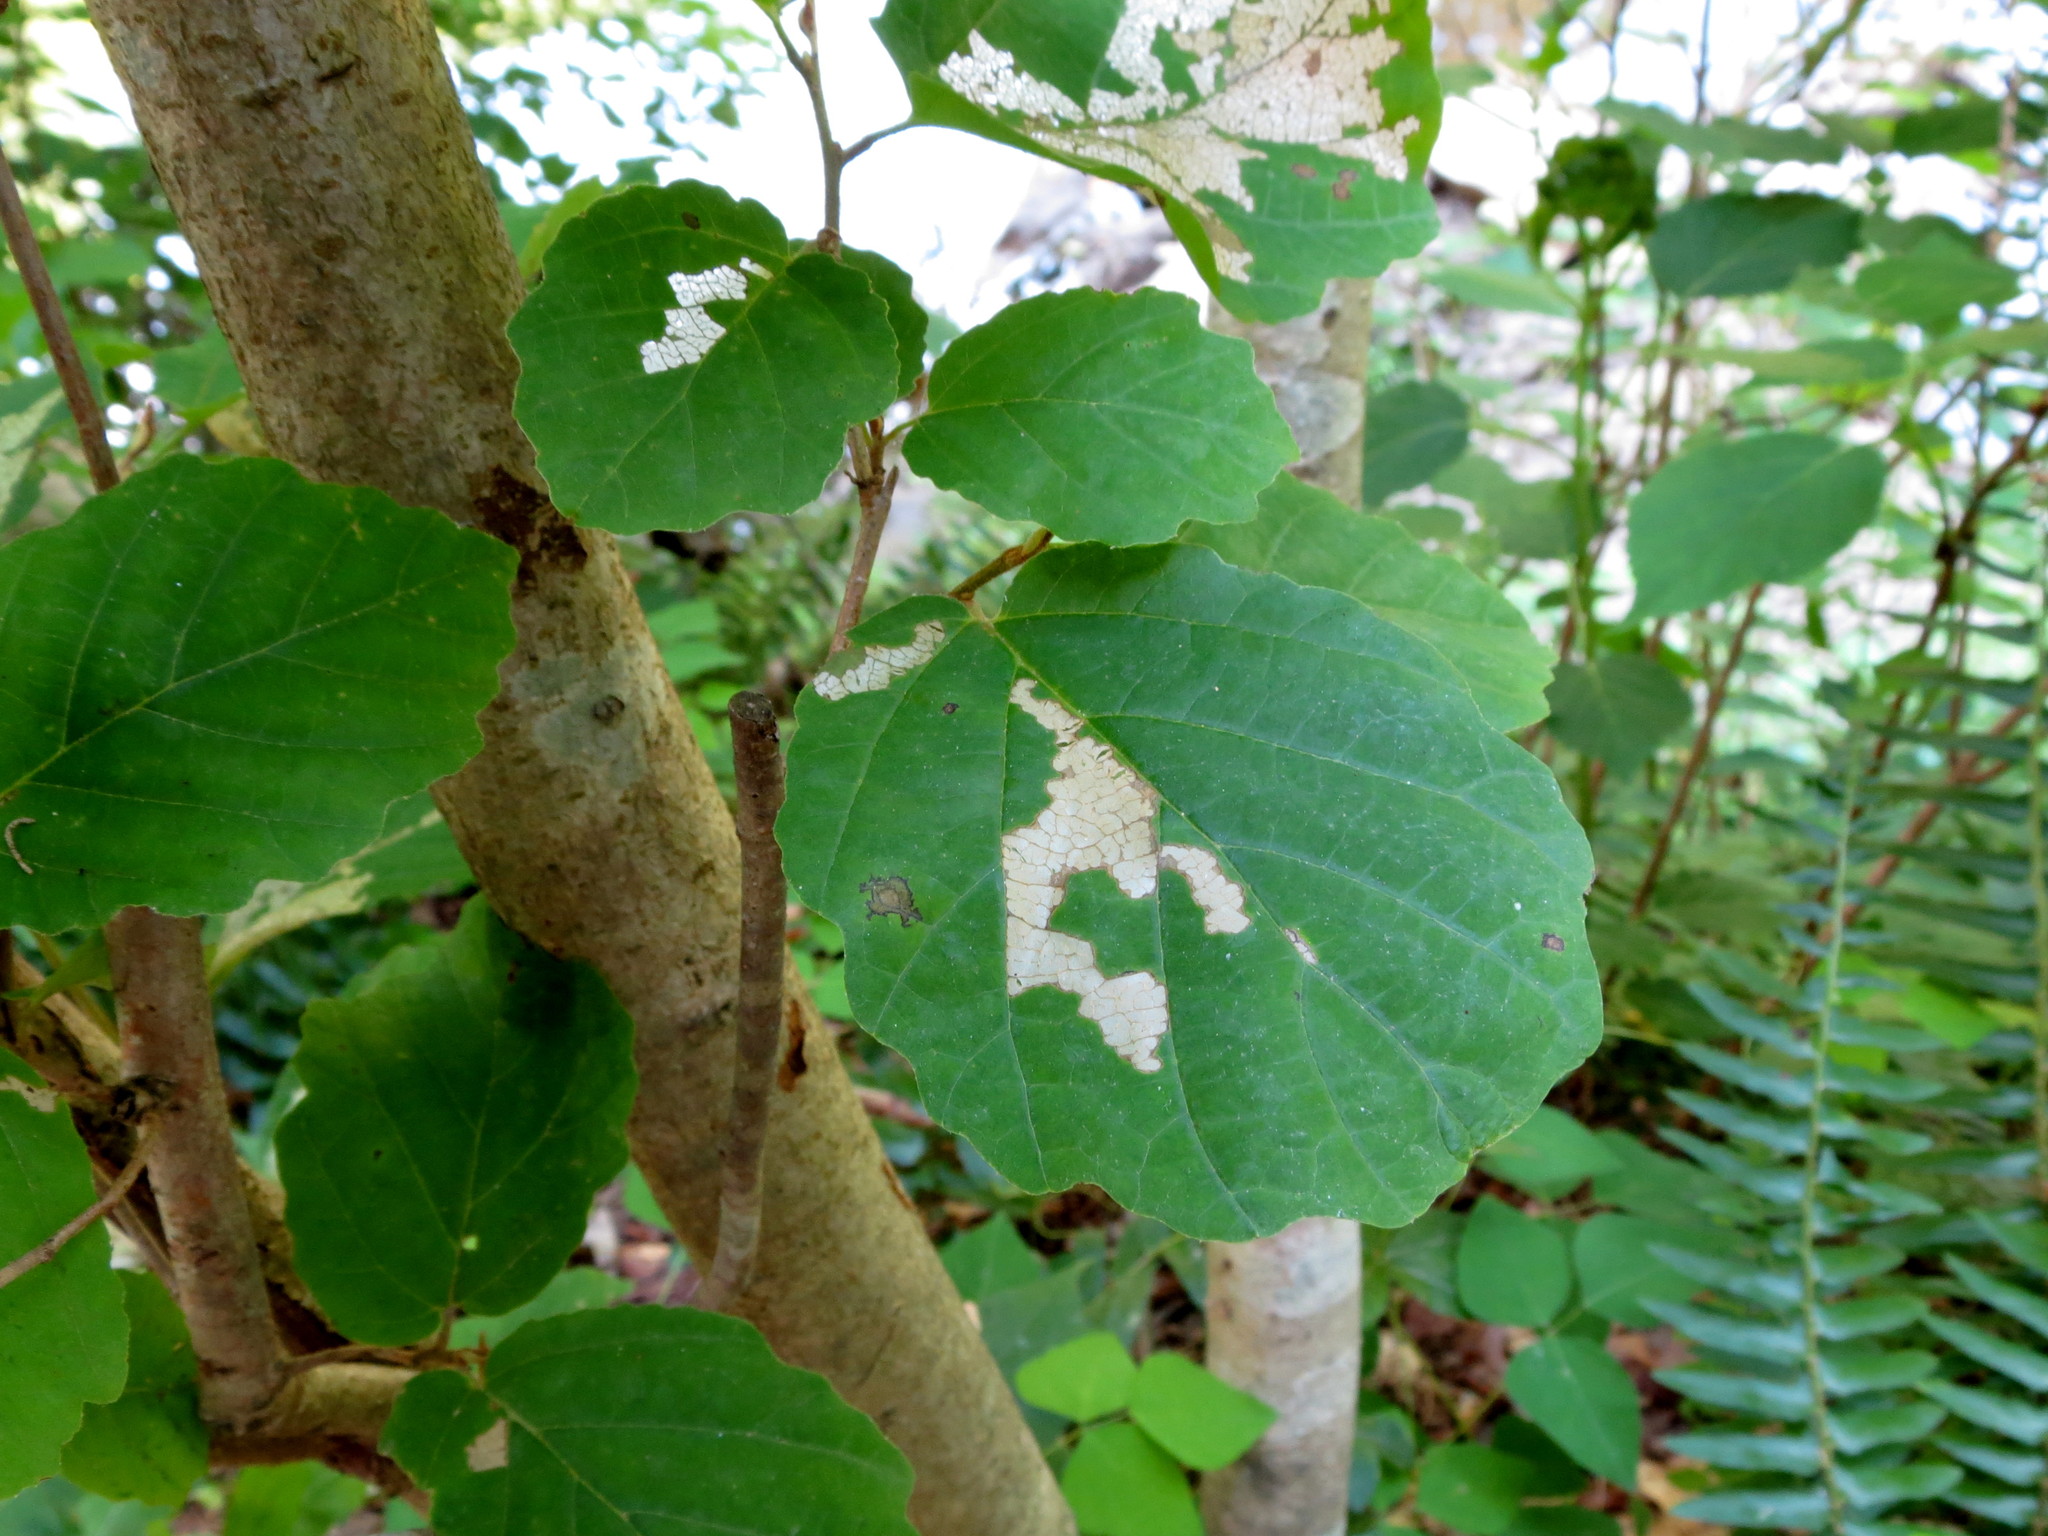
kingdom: Plantae
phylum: Tracheophyta
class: Magnoliopsida
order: Saxifragales
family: Hamamelidaceae
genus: Hamamelis
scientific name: Hamamelis virginiana
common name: Witch-hazel
